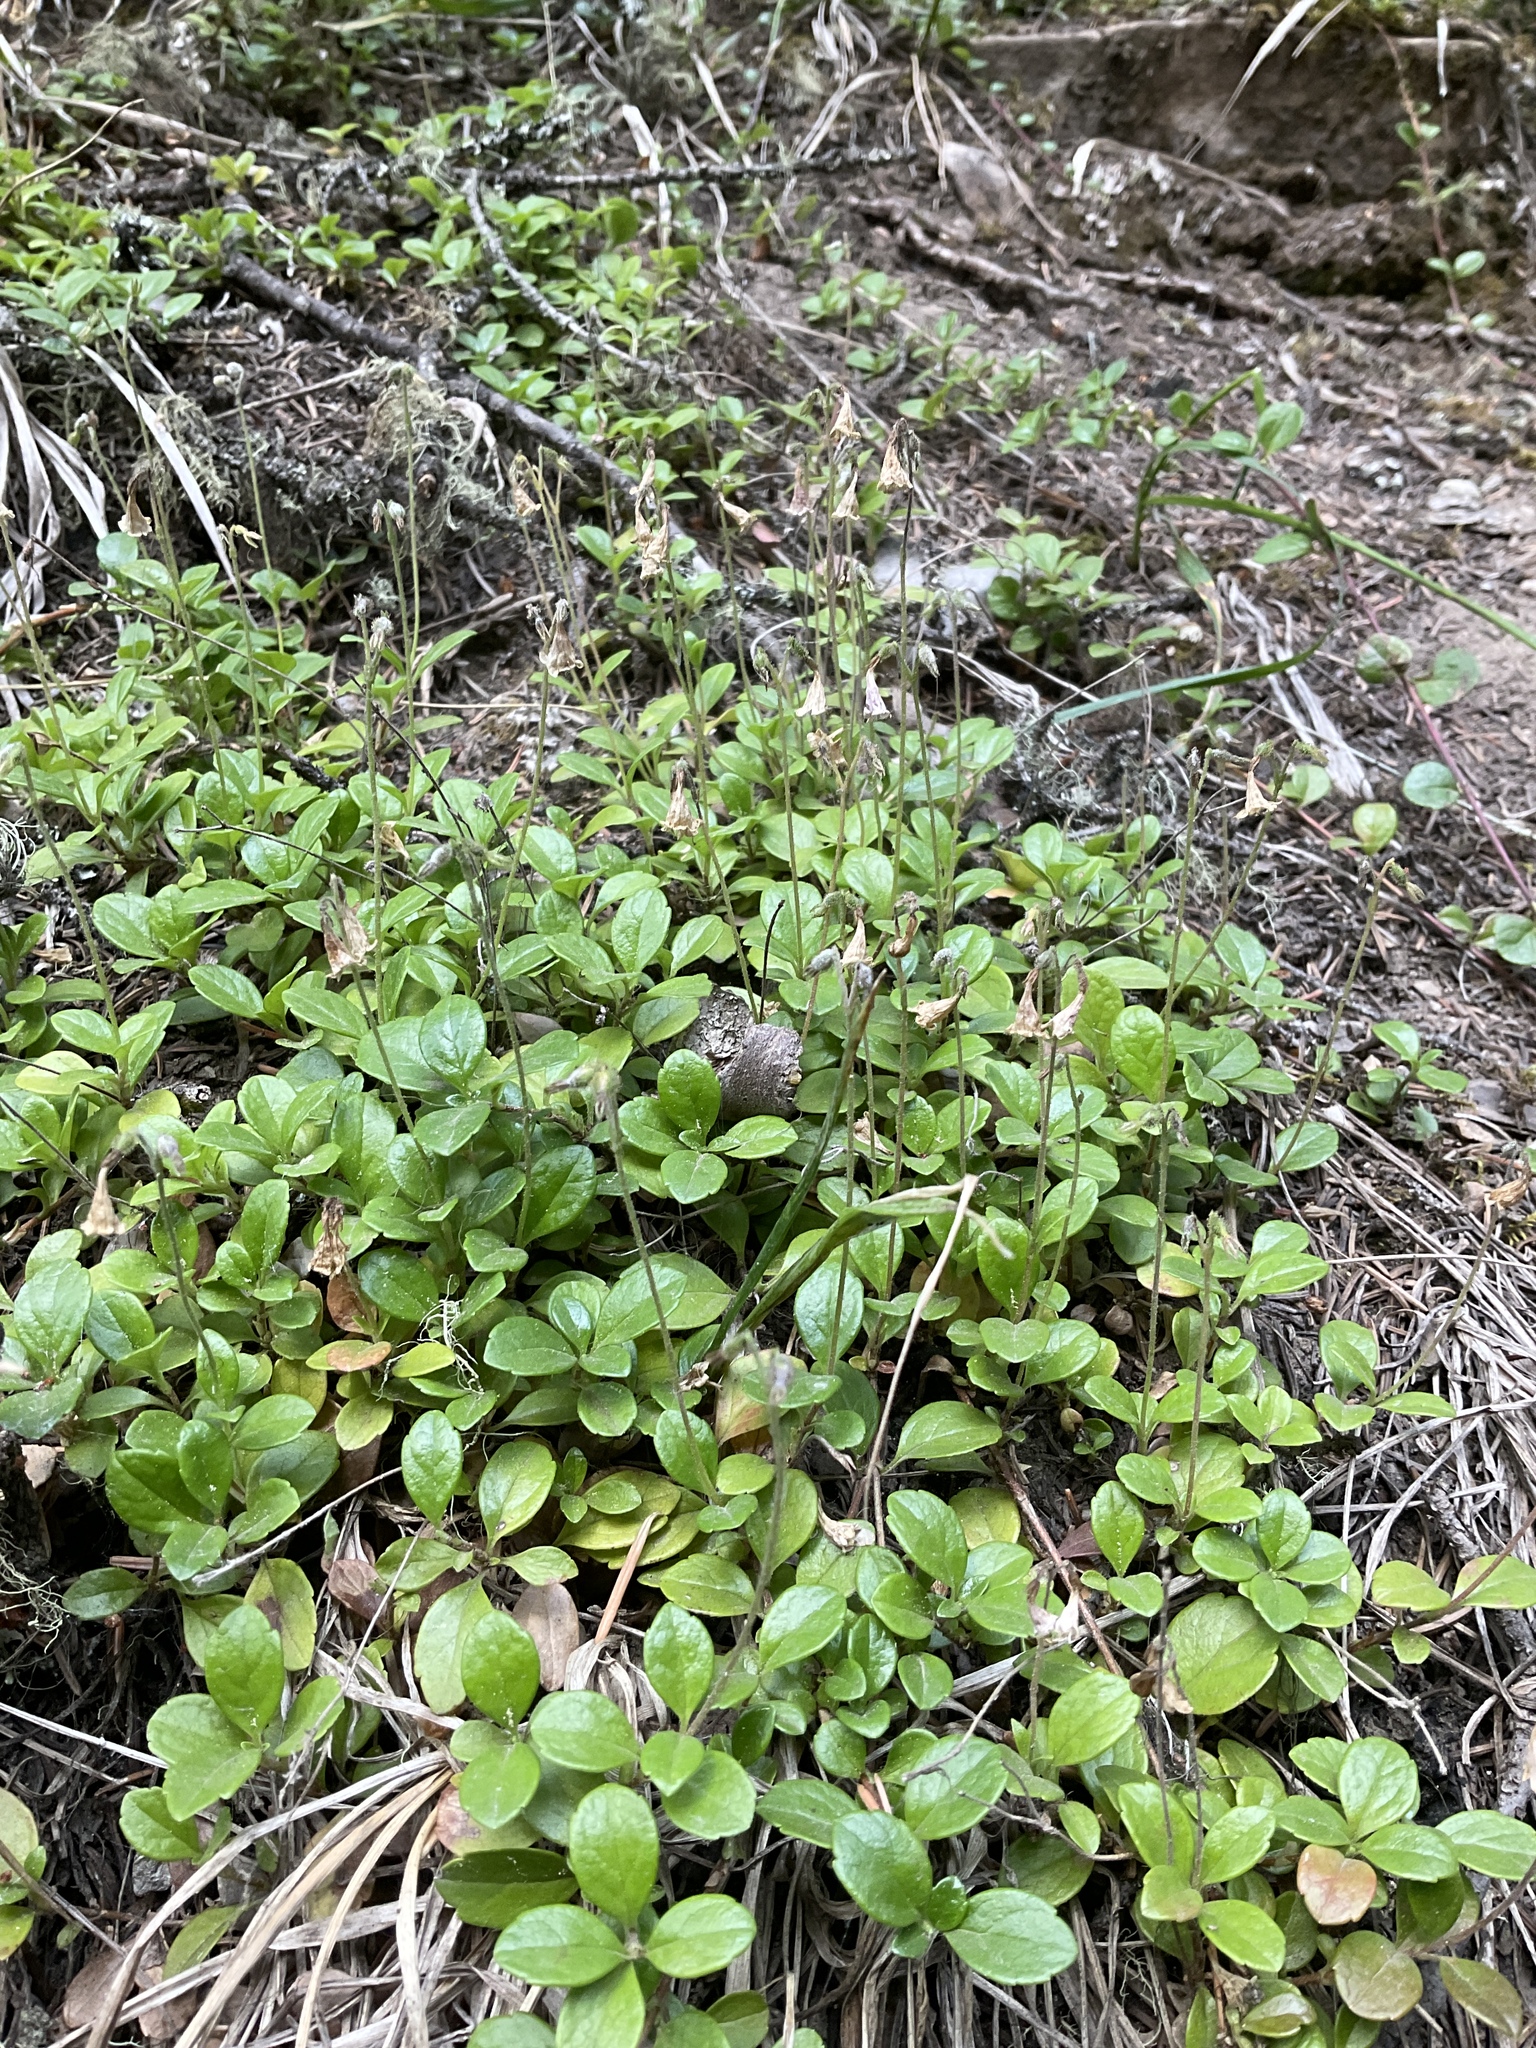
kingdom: Plantae
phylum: Tracheophyta
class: Magnoliopsida
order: Dipsacales
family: Caprifoliaceae
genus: Linnaea
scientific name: Linnaea borealis
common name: Twinflower
